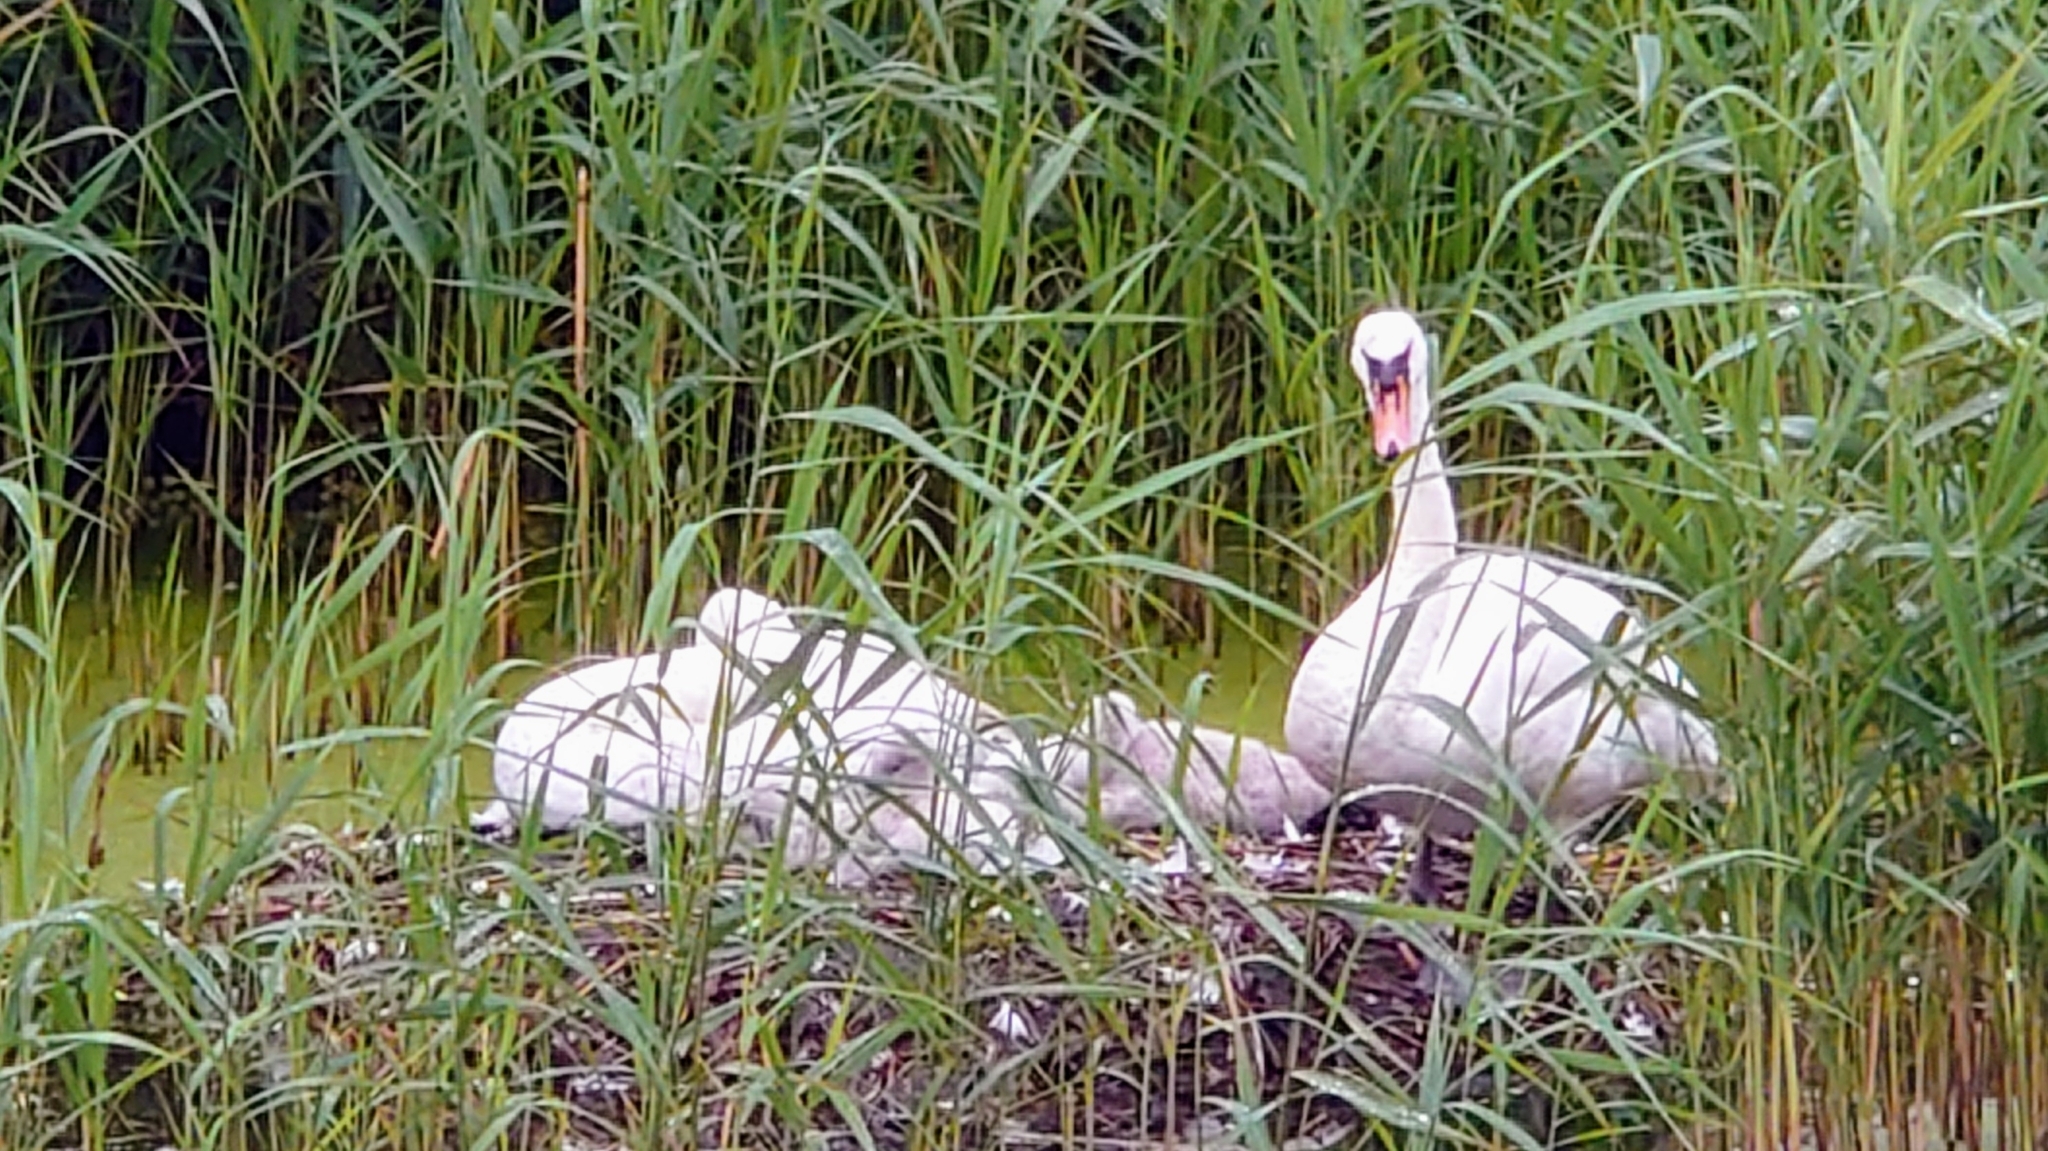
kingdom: Animalia
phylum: Chordata
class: Aves
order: Anseriformes
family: Anatidae
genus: Cygnus
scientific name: Cygnus olor
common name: Mute swan
